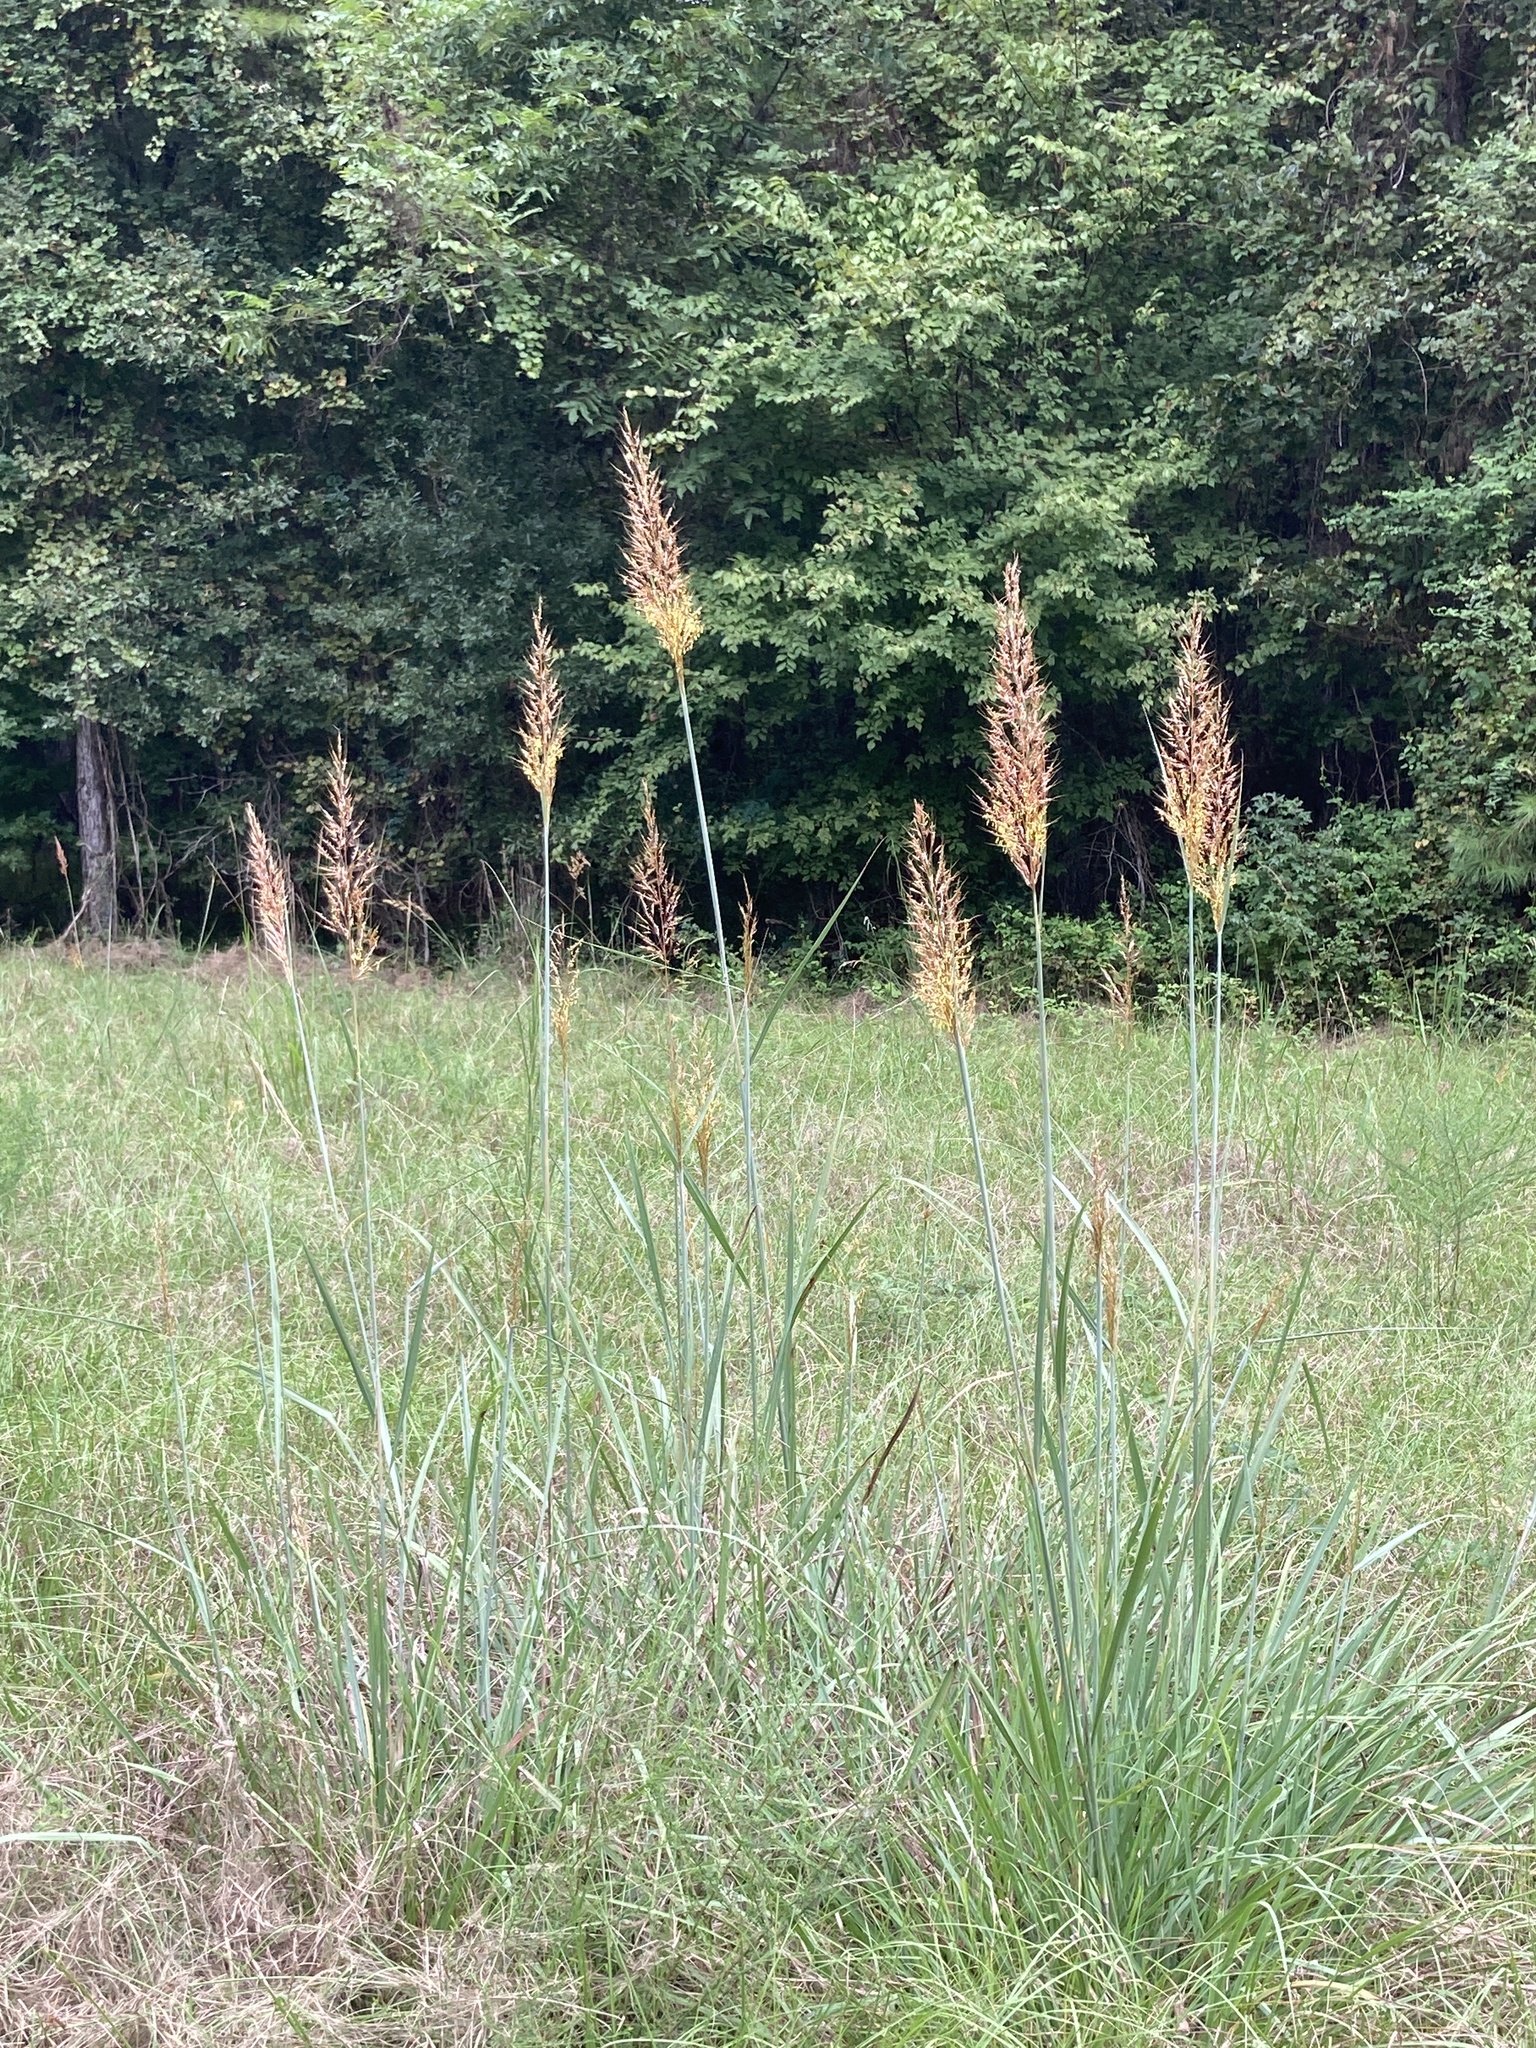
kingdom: Plantae
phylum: Tracheophyta
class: Liliopsida
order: Poales
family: Poaceae
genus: Sorghastrum
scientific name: Sorghastrum nutans
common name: Indian grass
